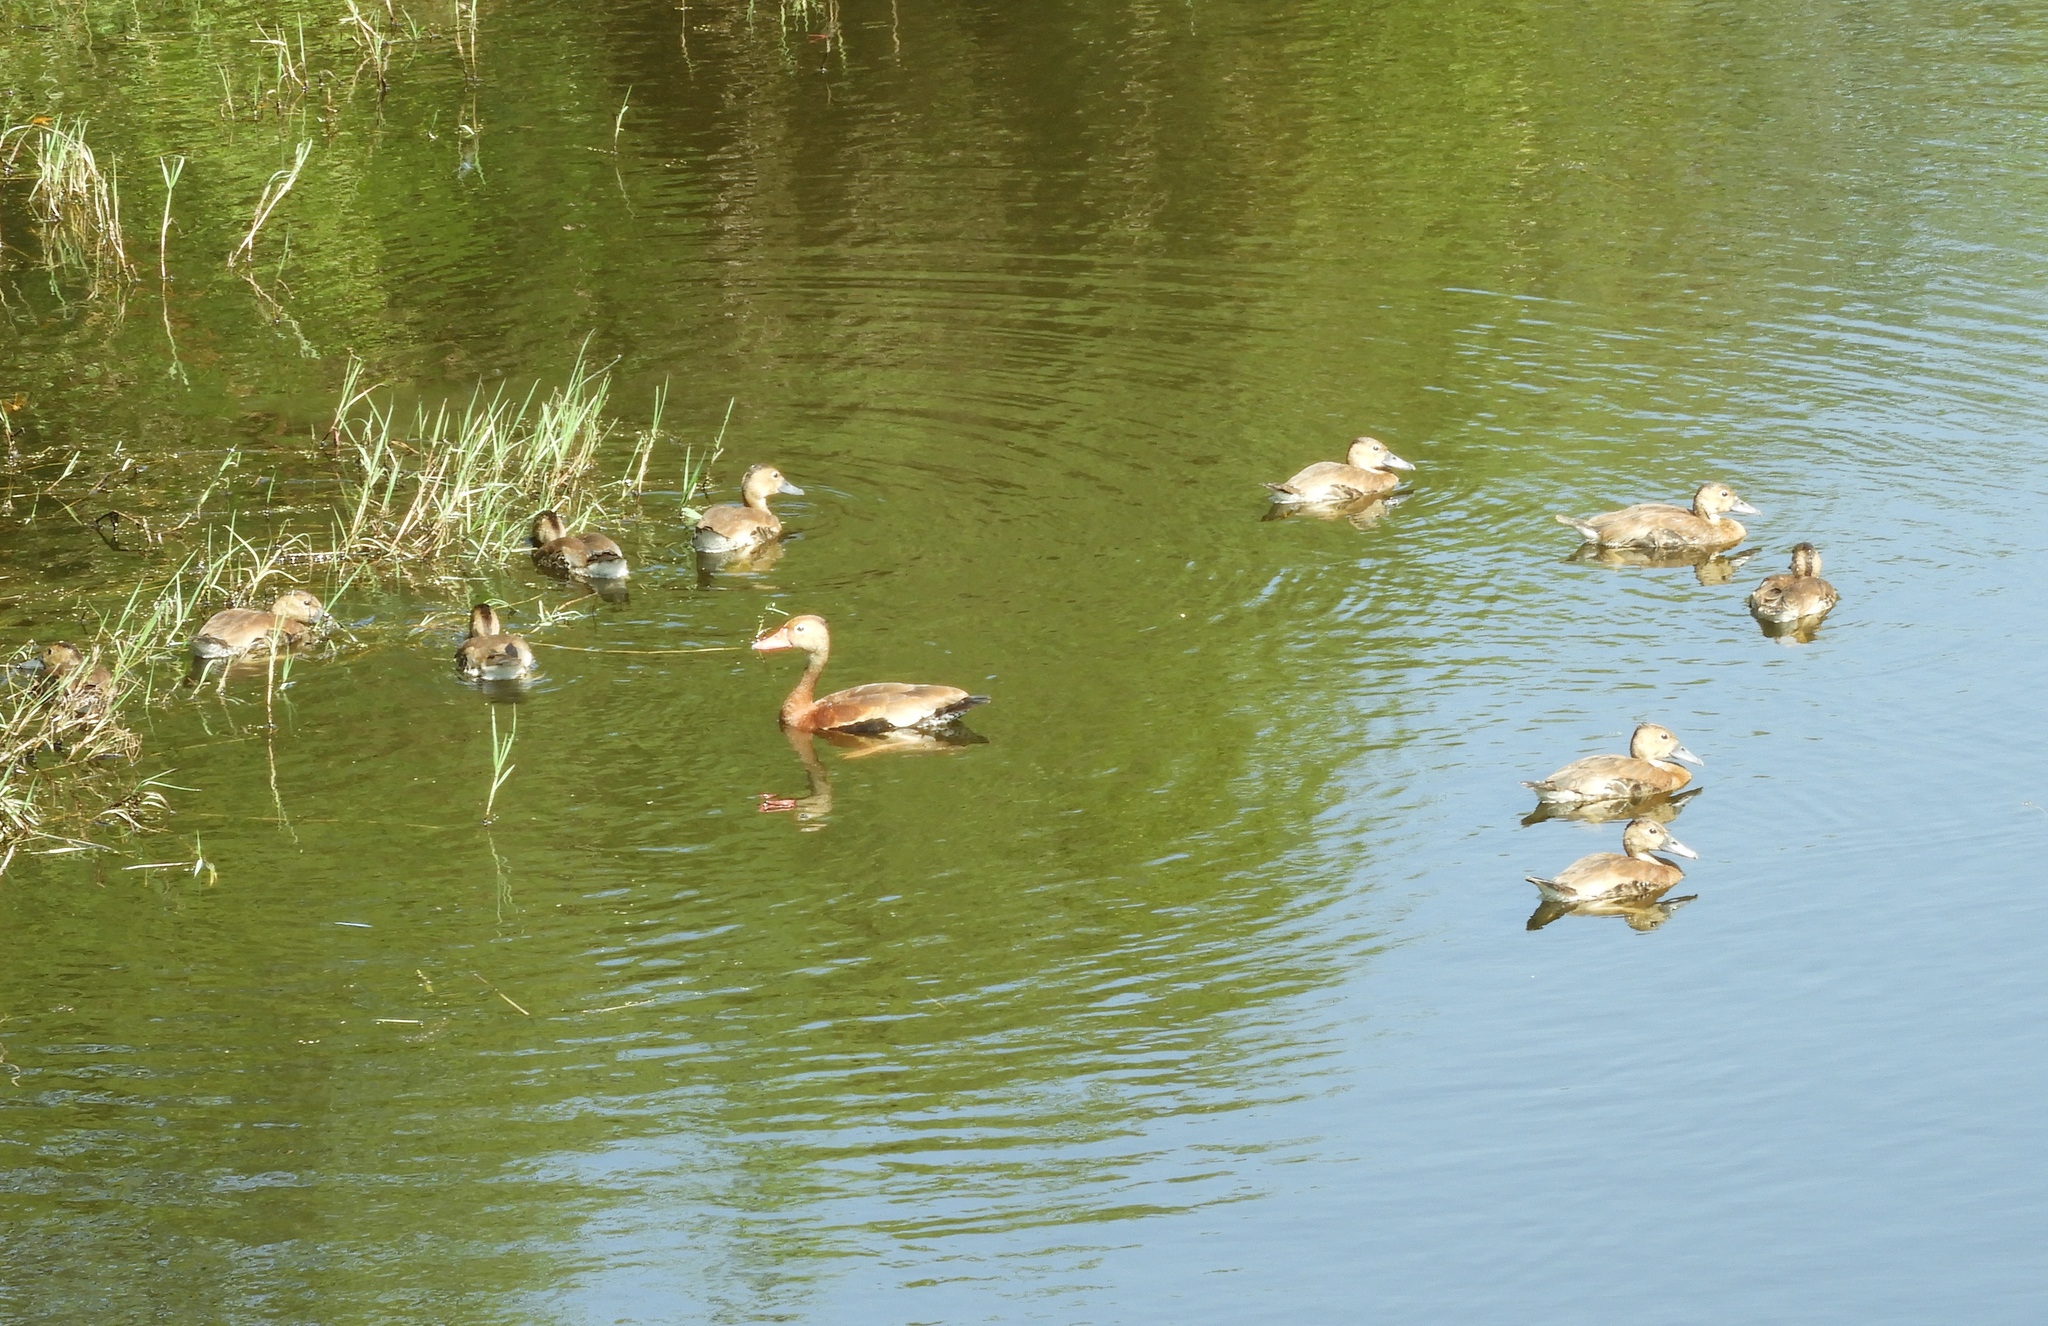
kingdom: Animalia
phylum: Chordata
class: Aves
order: Anseriformes
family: Anatidae
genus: Dendrocygna
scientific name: Dendrocygna autumnalis
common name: Black-bellied whistling duck
